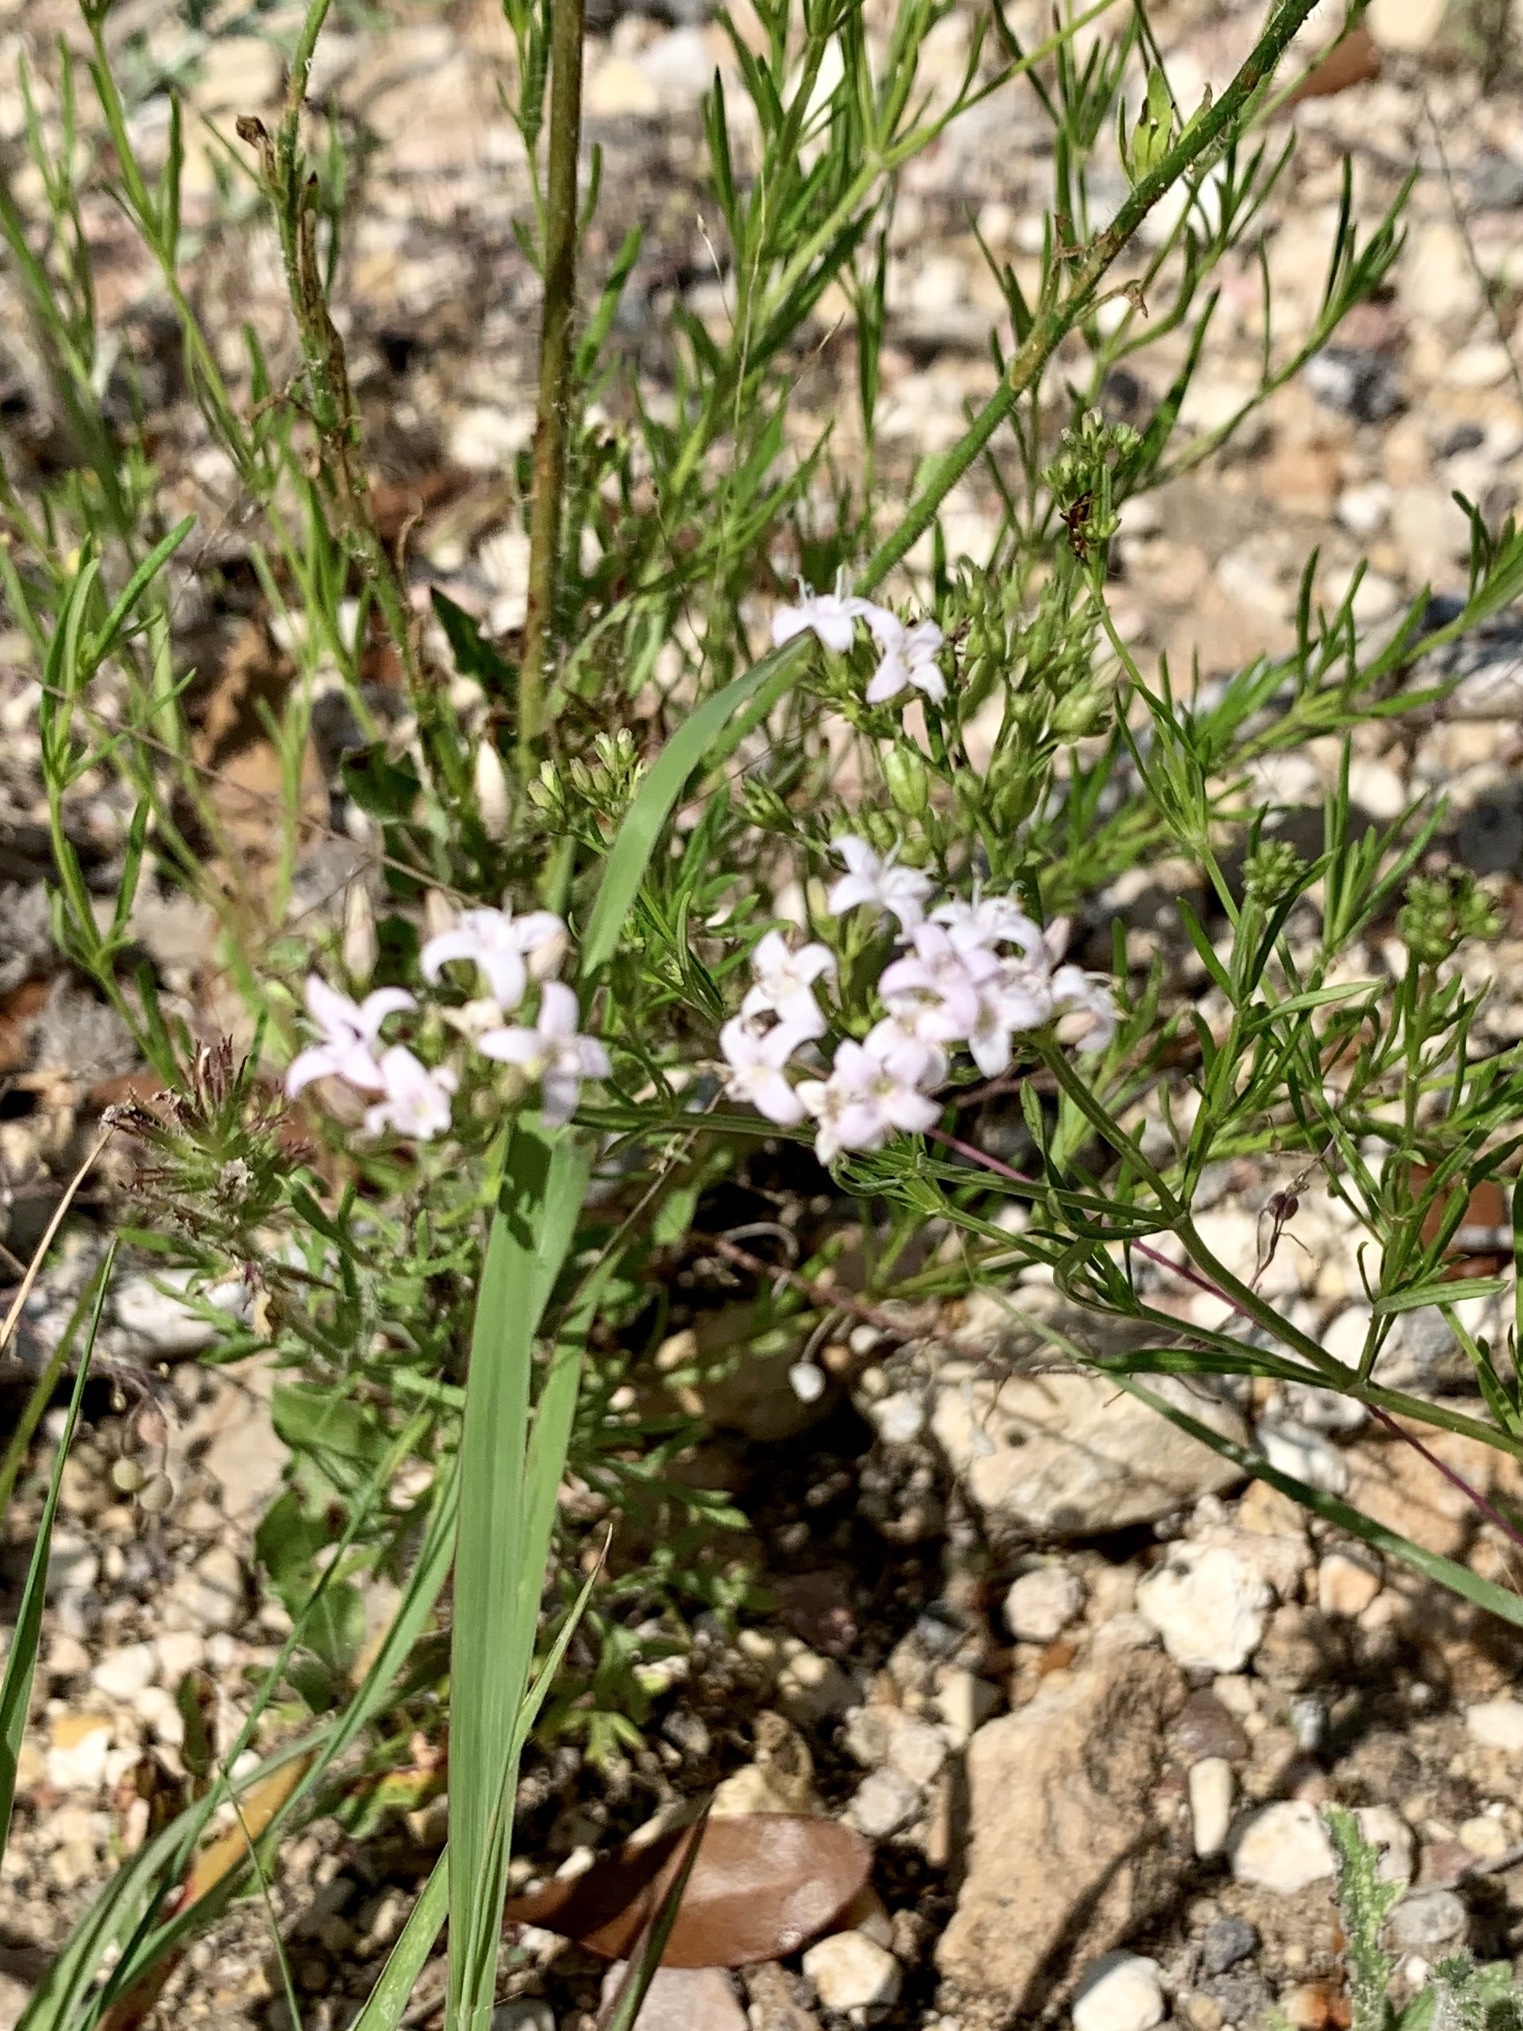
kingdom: Plantae
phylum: Tracheophyta
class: Magnoliopsida
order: Gentianales
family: Rubiaceae
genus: Stenaria
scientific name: Stenaria nigricans
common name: Diamondflowers
